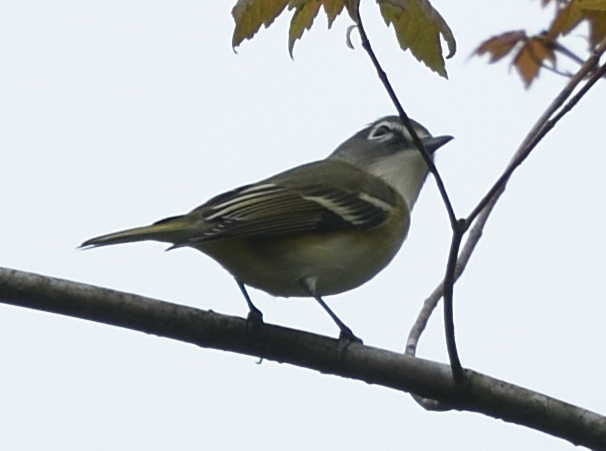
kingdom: Animalia
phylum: Chordata
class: Aves
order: Passeriformes
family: Vireonidae
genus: Vireo
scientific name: Vireo solitarius
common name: Blue-headed vireo
